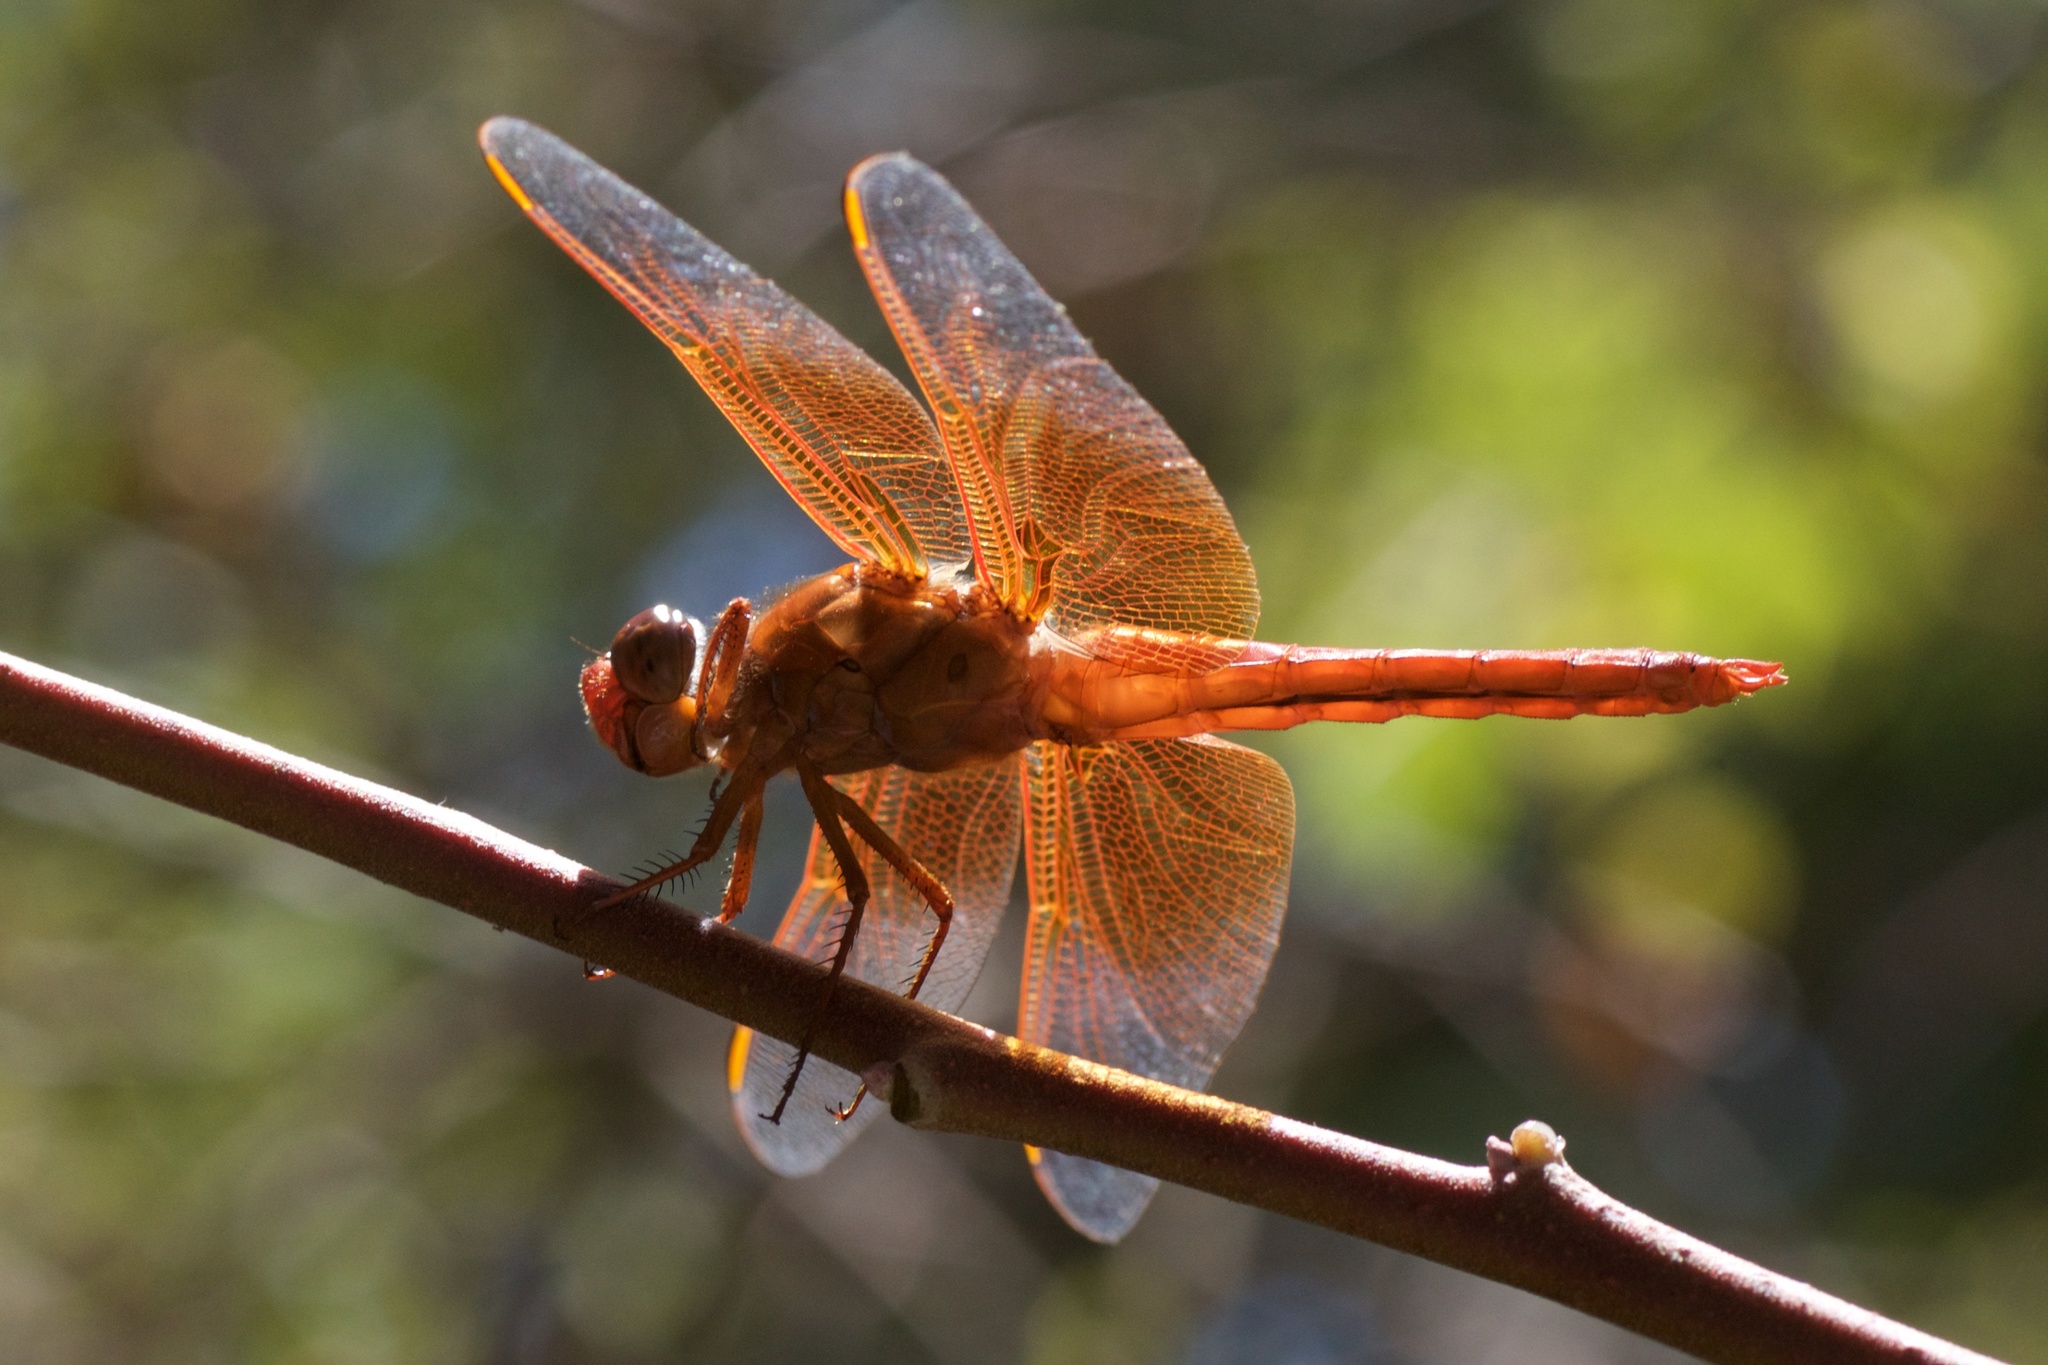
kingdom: Animalia
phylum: Arthropoda
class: Insecta
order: Odonata
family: Libellulidae
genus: Libellula
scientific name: Libellula saturata
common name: Flame skimmer
